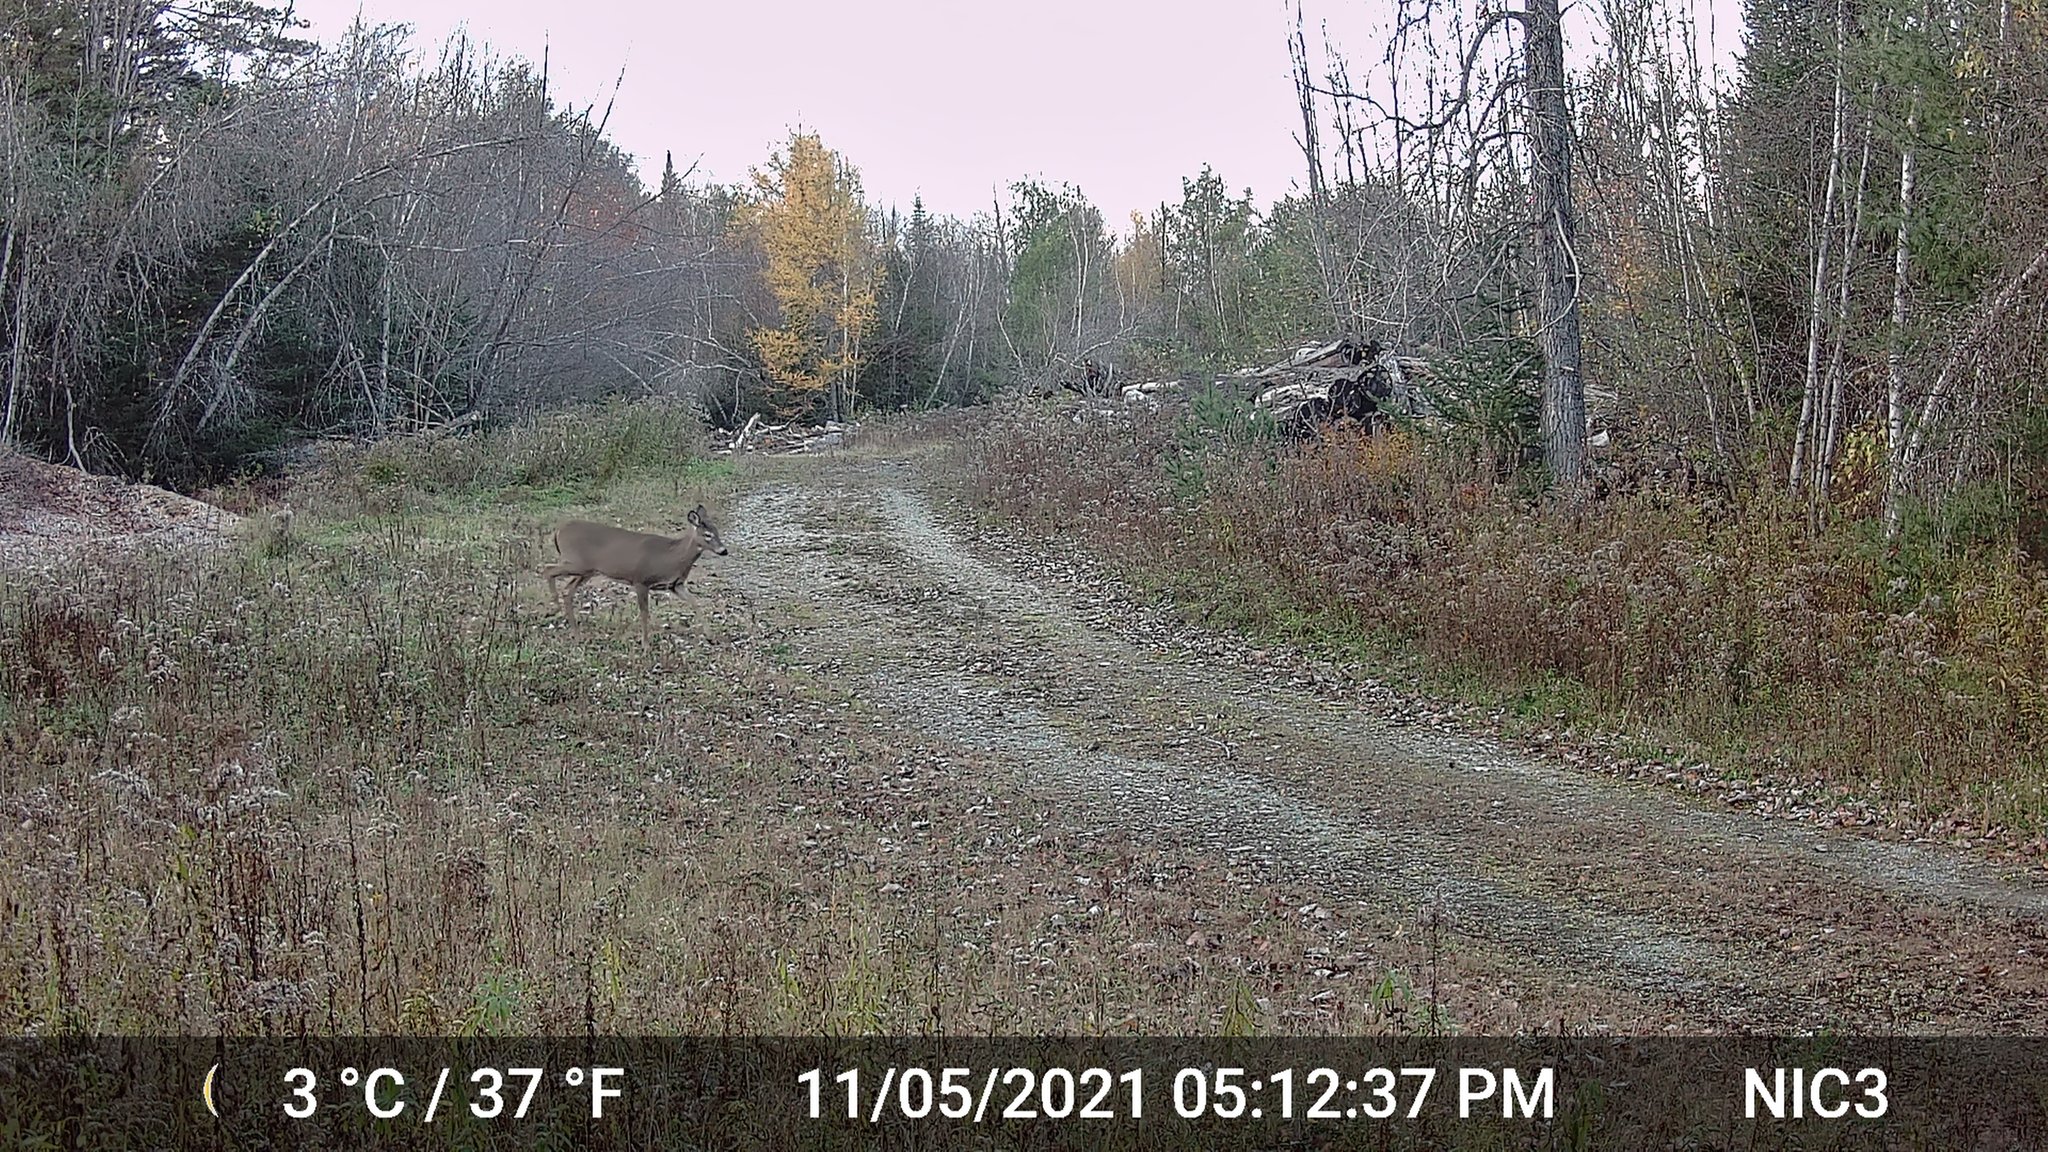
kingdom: Animalia
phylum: Chordata
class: Mammalia
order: Artiodactyla
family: Cervidae
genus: Odocoileus
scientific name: Odocoileus virginianus
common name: White-tailed deer
